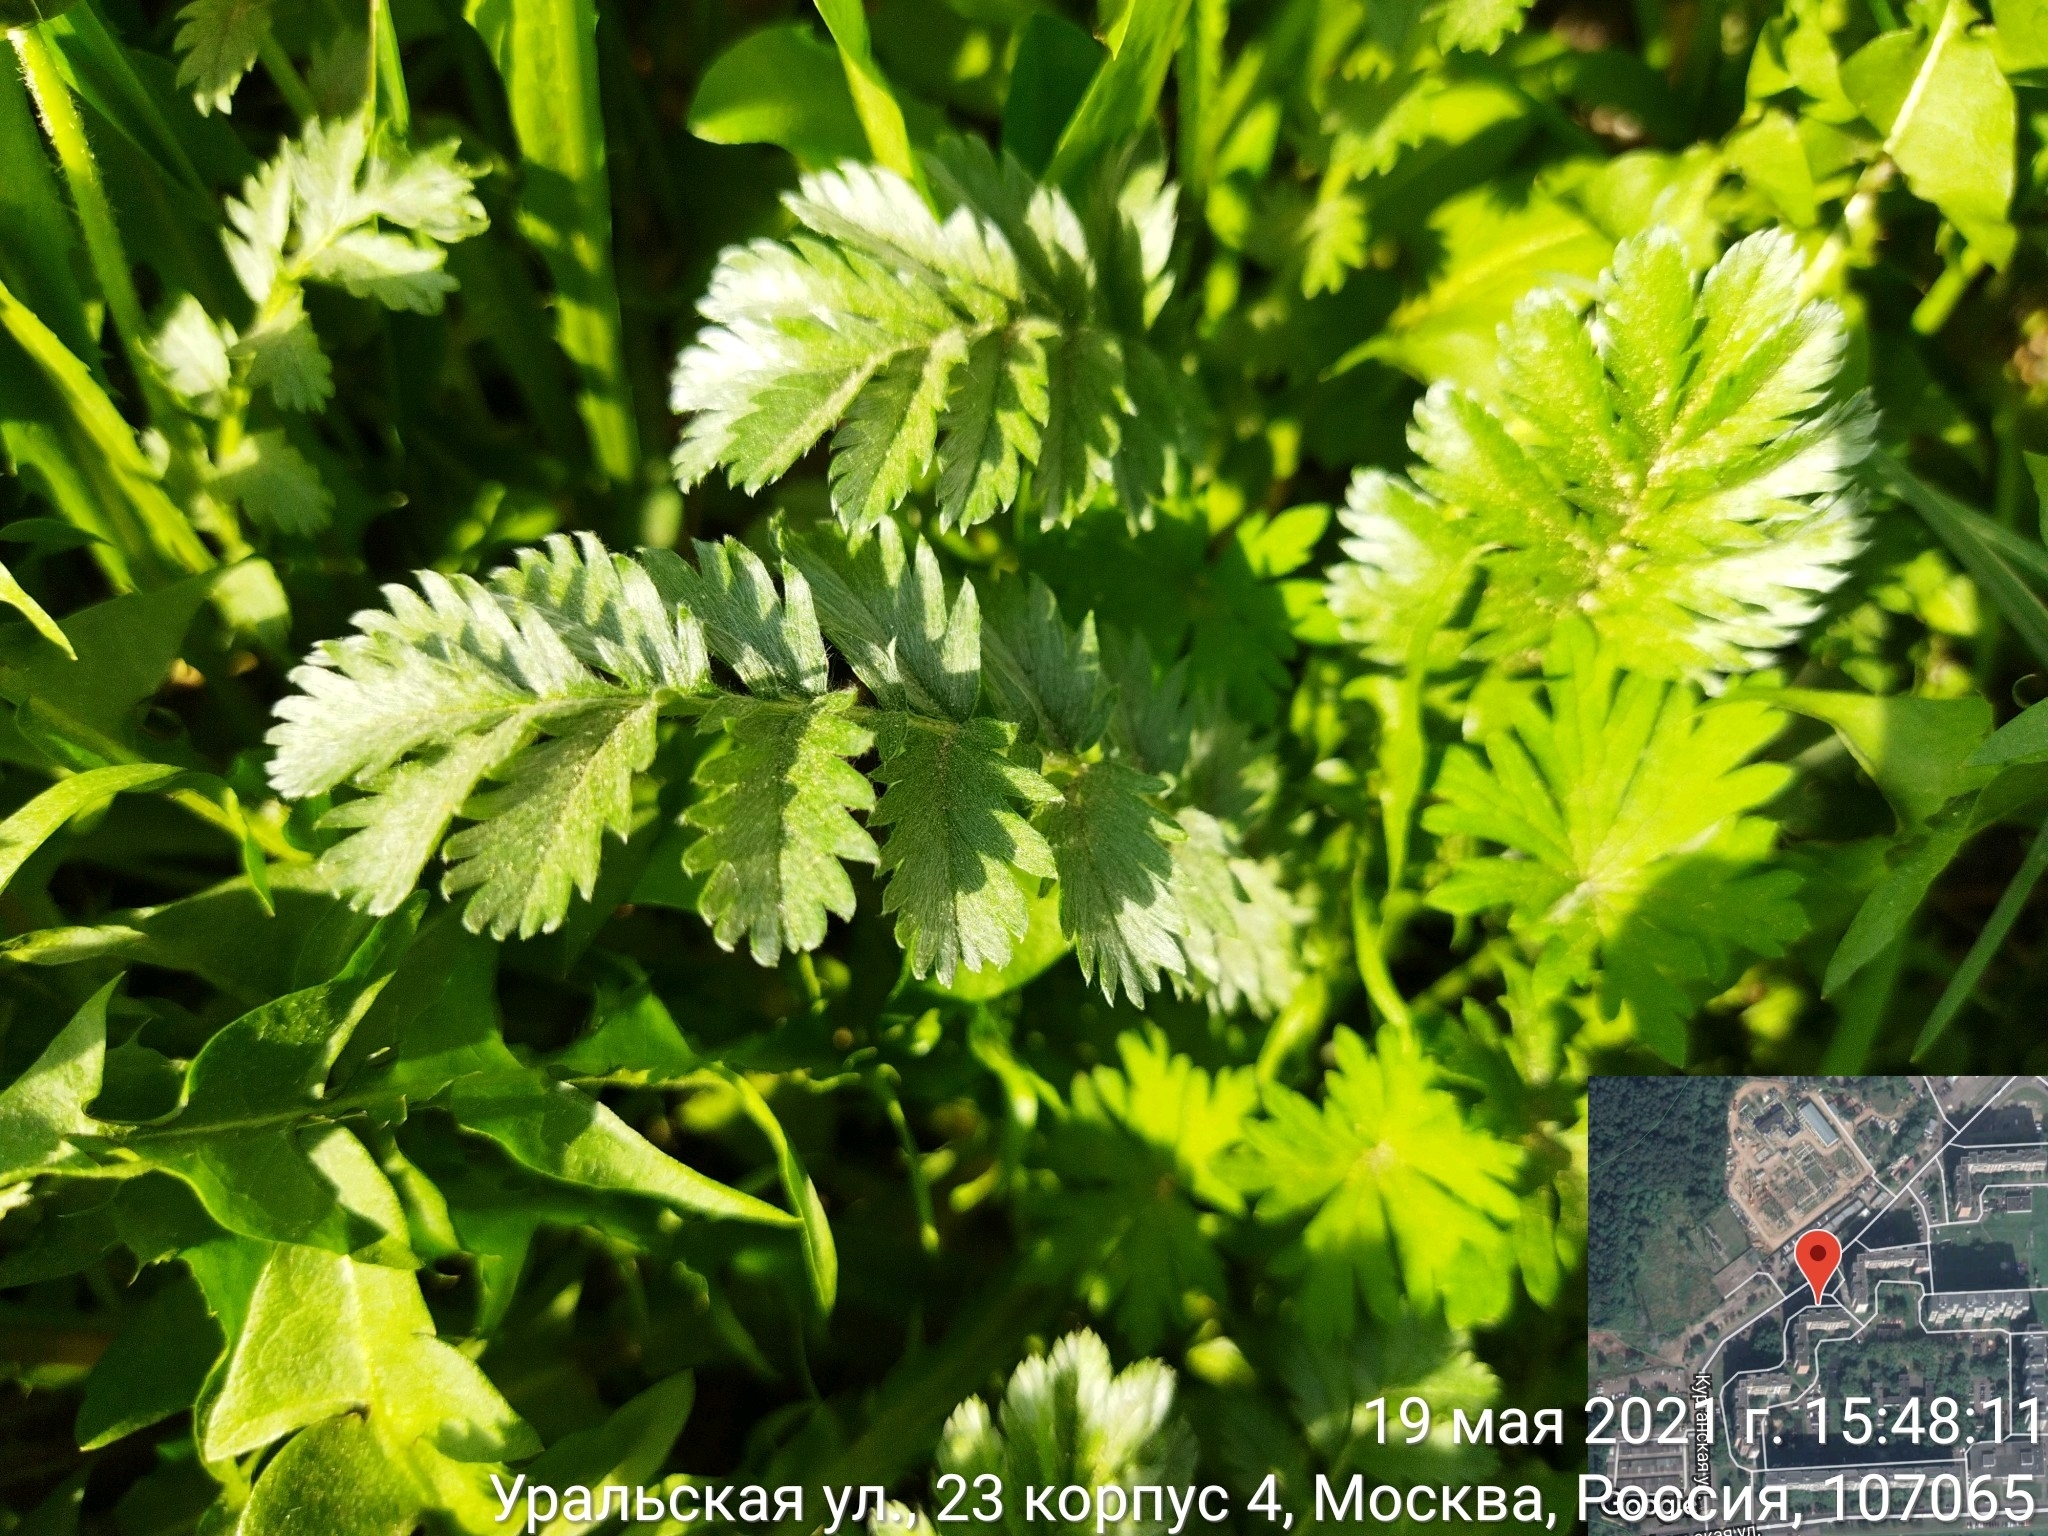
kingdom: Plantae
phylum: Tracheophyta
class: Magnoliopsida
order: Rosales
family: Rosaceae
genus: Argentina
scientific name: Argentina anserina
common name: Common silverweed
